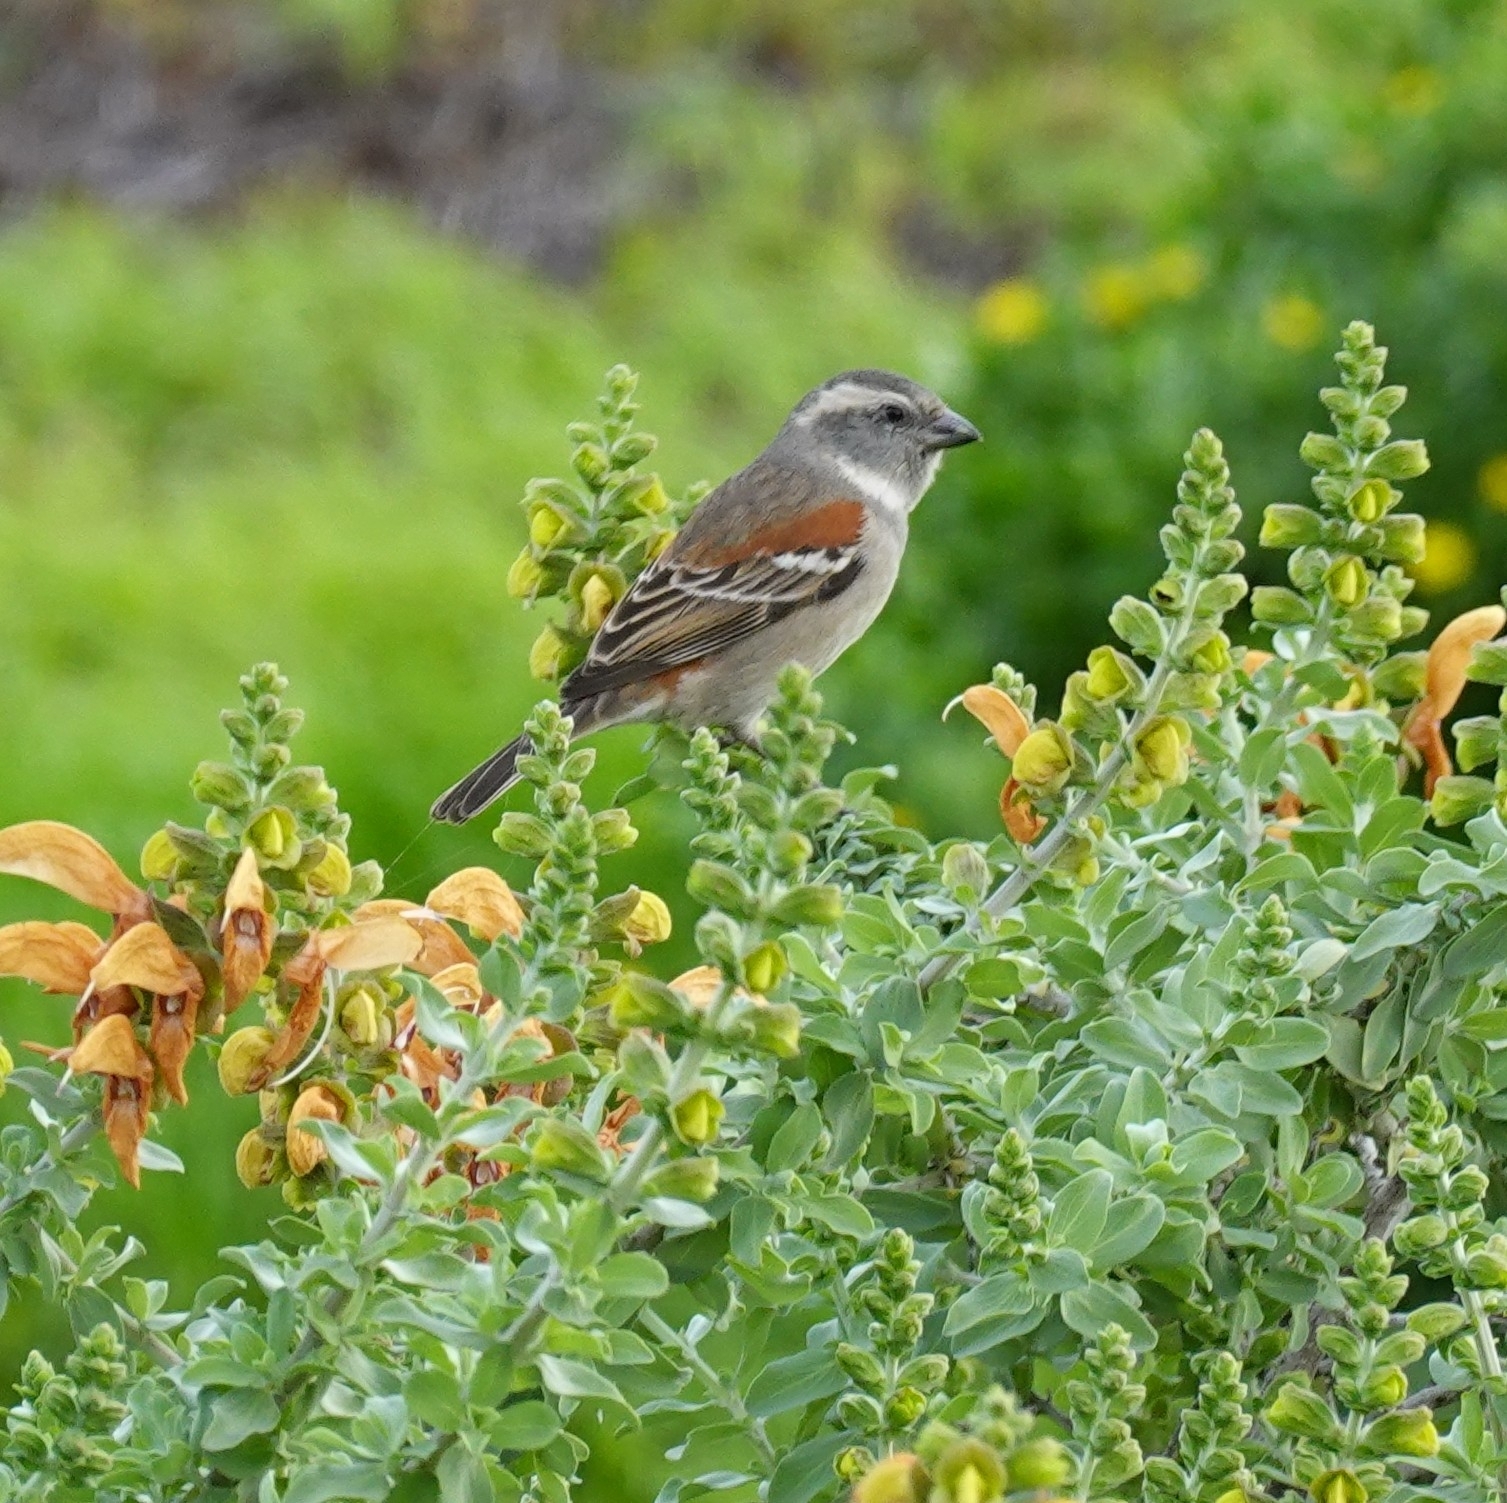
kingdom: Animalia
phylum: Chordata
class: Aves
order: Passeriformes
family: Passeridae
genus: Passer
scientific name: Passer melanurus
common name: Cape sparrow
